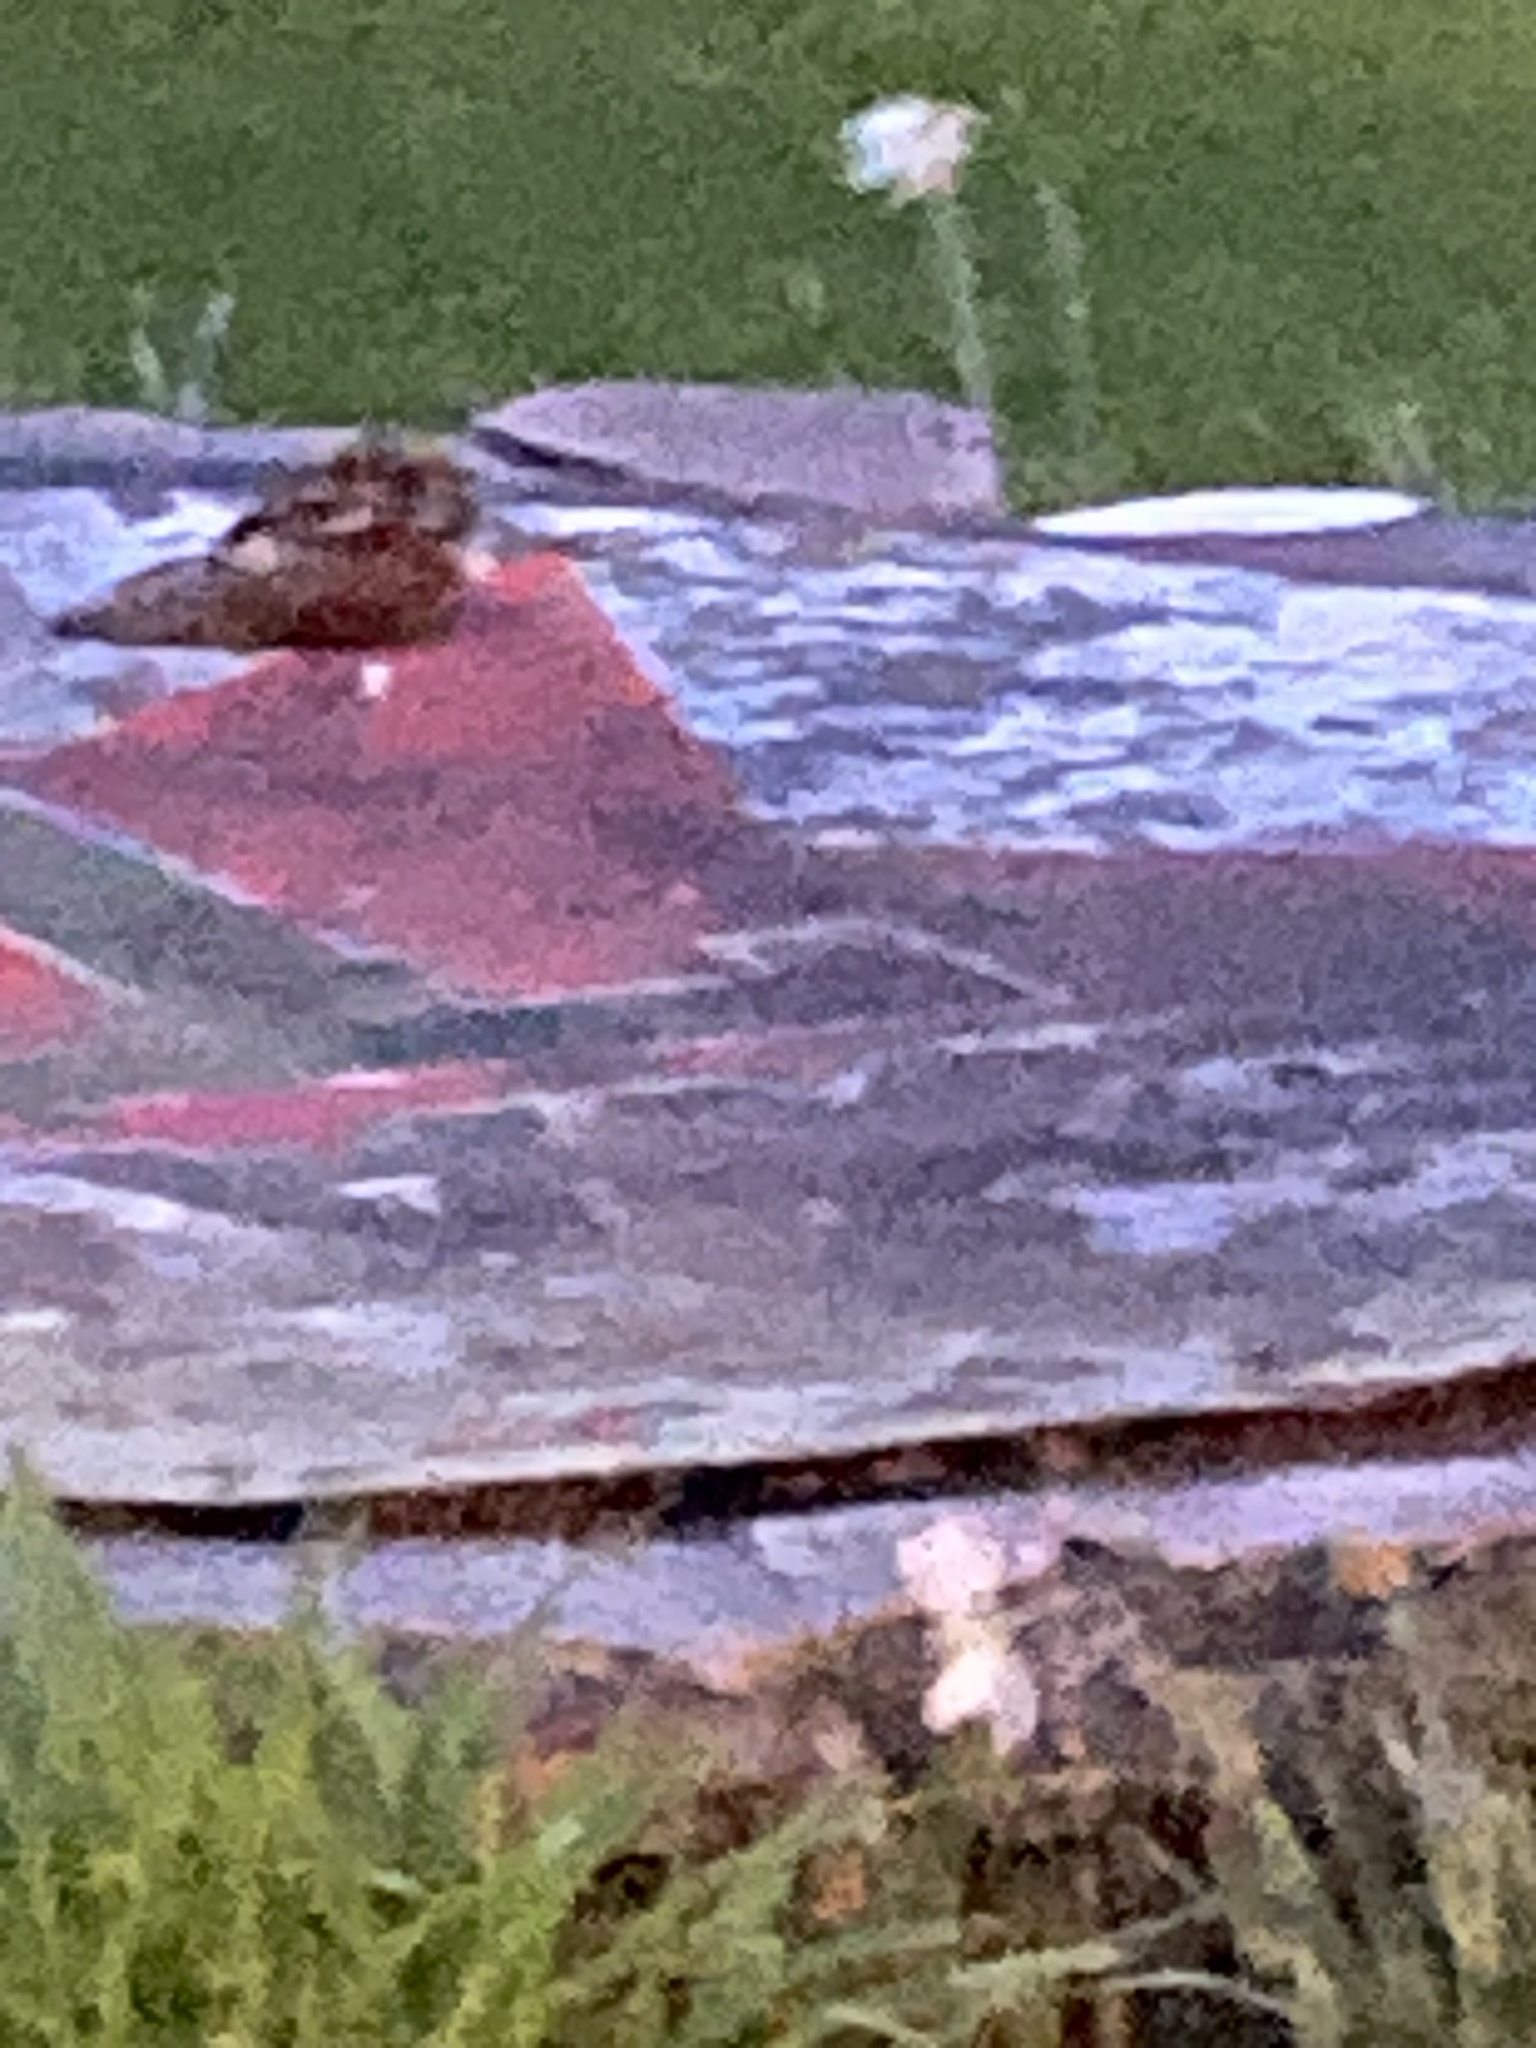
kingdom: Animalia
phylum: Chordata
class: Aves
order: Caprimulgiformes
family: Caprimulgidae
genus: Antrostomus
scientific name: Antrostomus vociferus
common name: Eastern whip-poor-will
